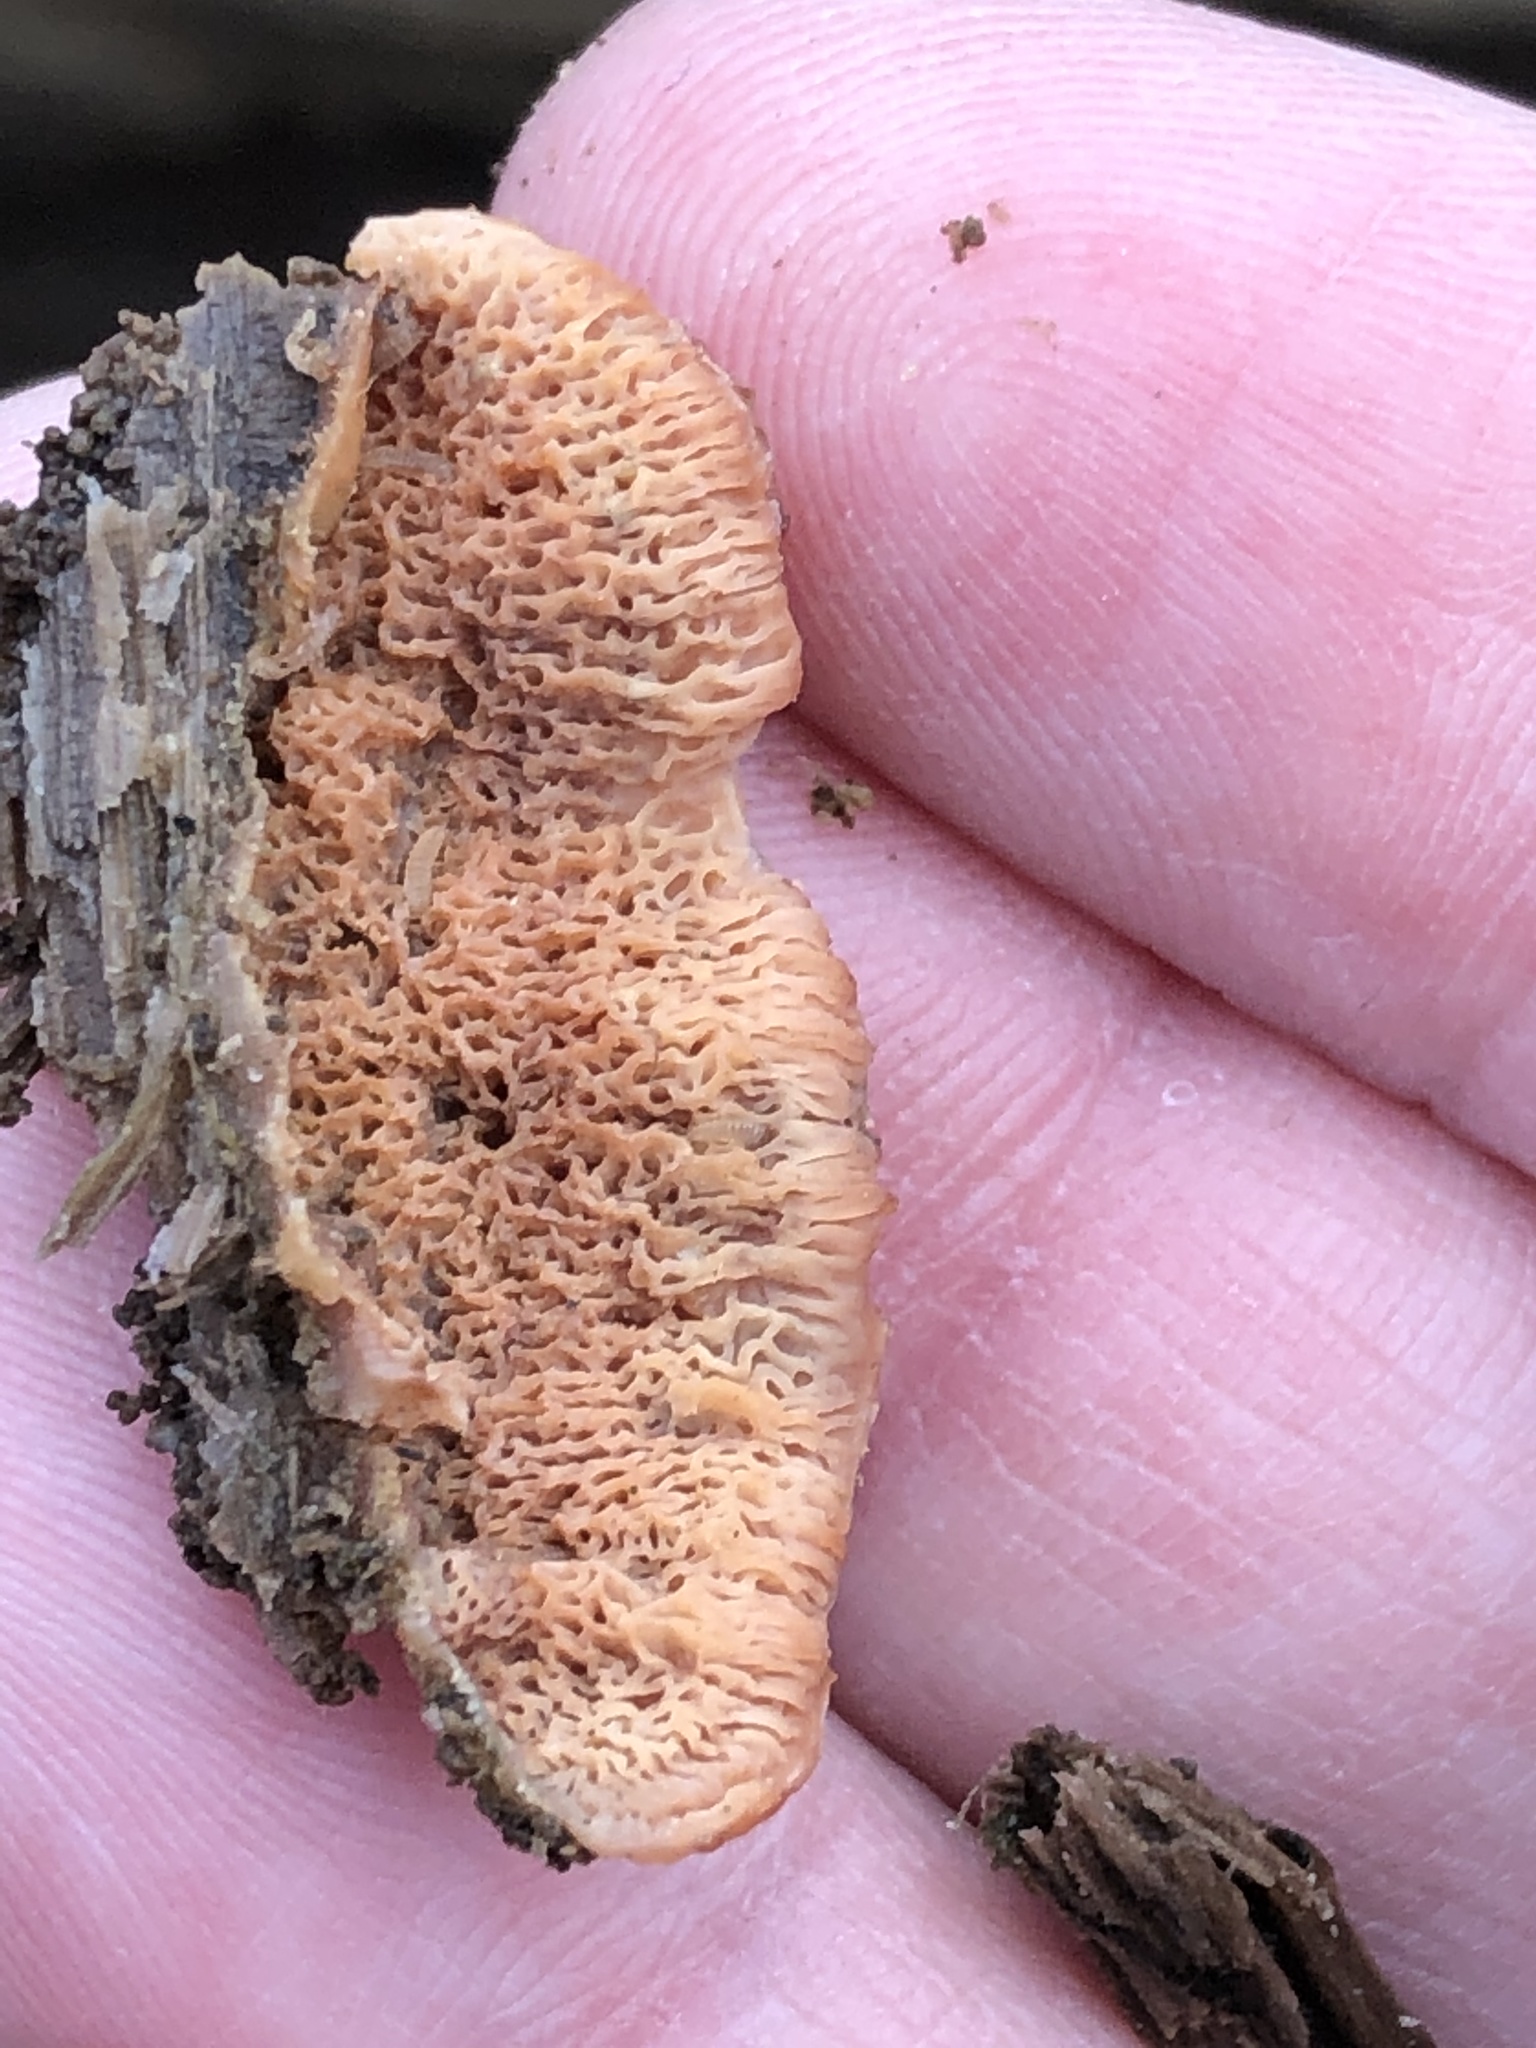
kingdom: Fungi
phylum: Basidiomycota
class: Agaricomycetes
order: Polyporales
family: Meruliaceae
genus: Phlebia
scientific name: Phlebia tremellosa
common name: Jelly rot
